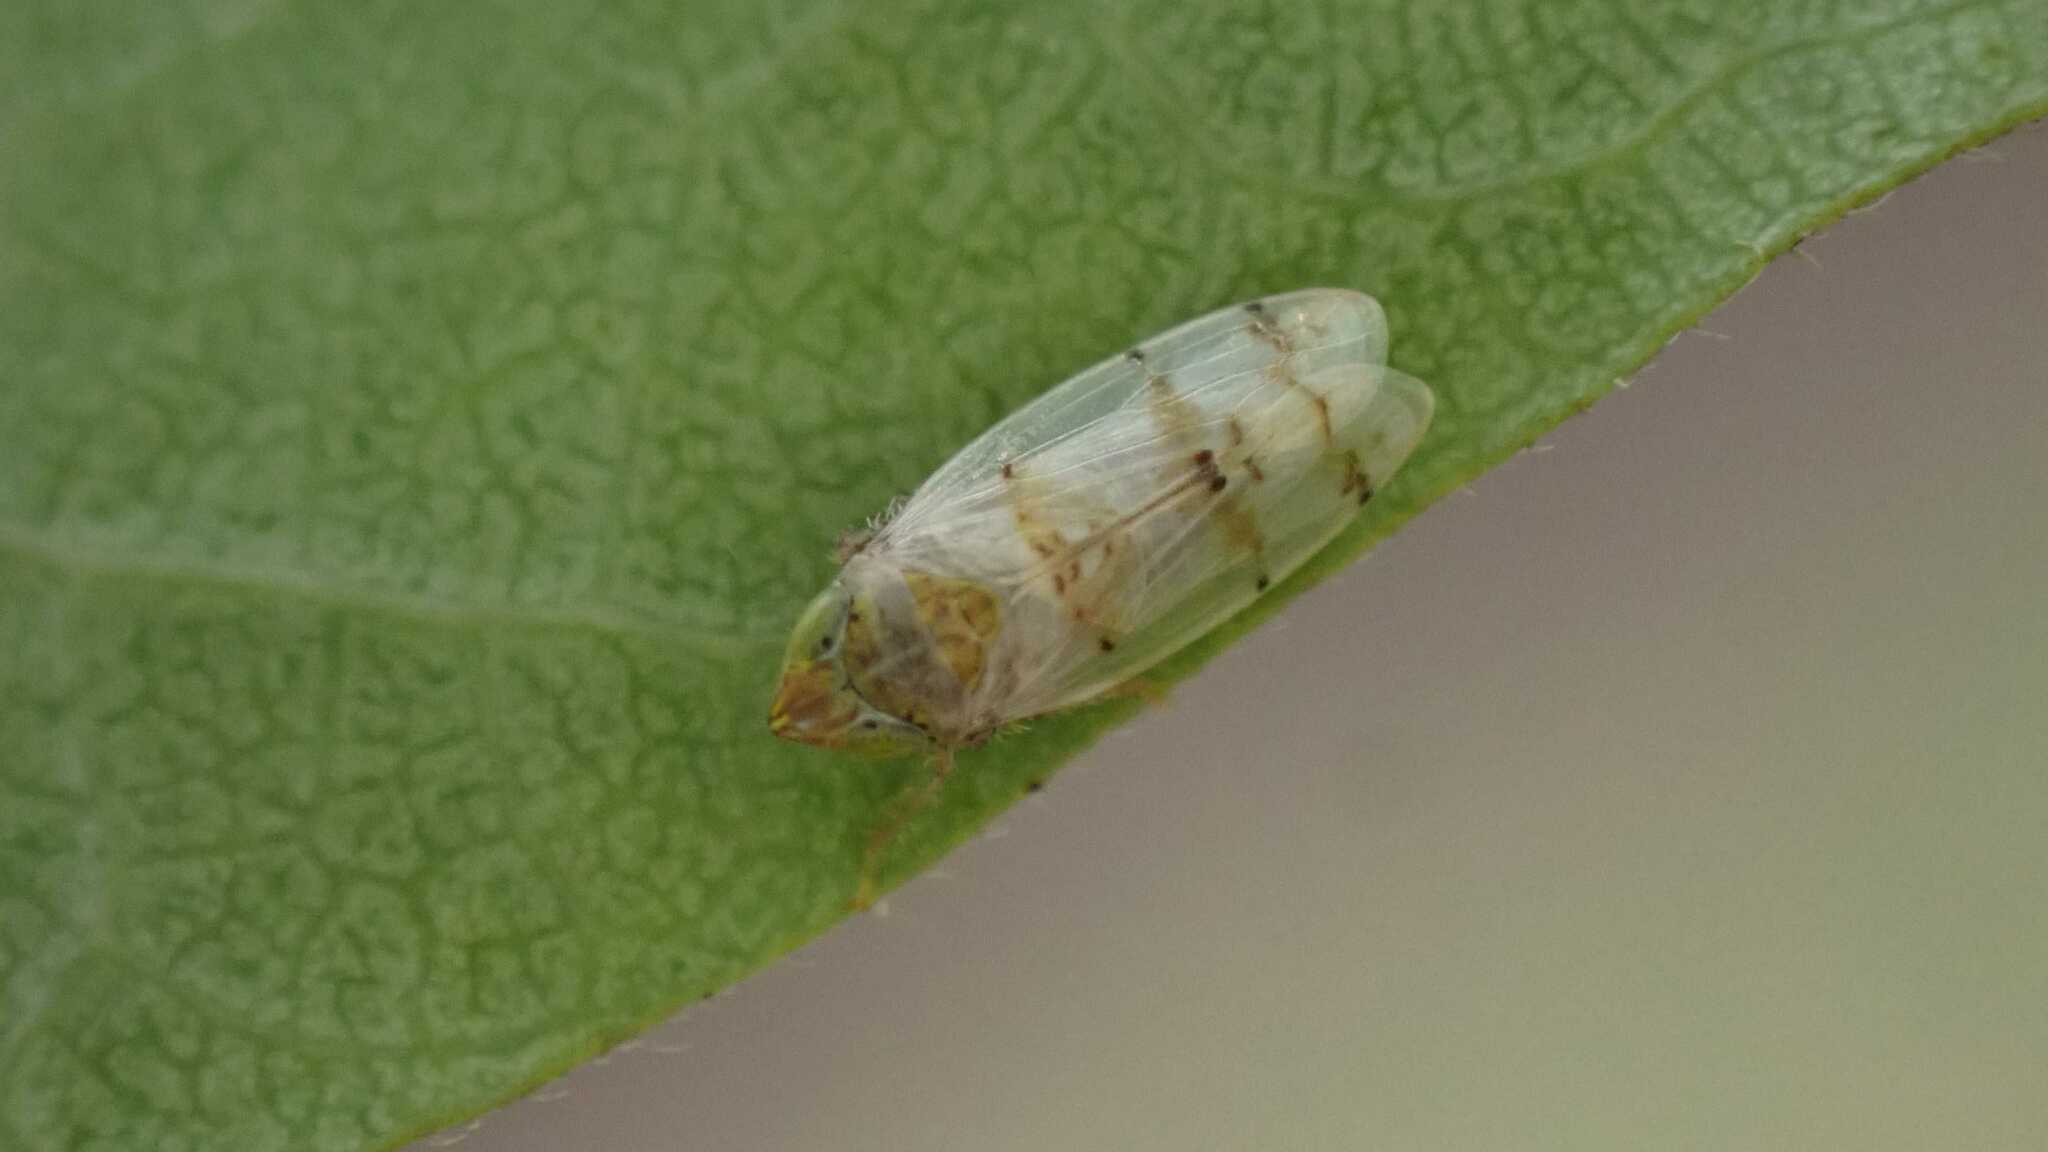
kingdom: Animalia
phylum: Arthropoda
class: Insecta
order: Hemiptera
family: Cicadellidae
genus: Japananus
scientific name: Japananus hyalinus
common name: The japanese maple leafhopper
